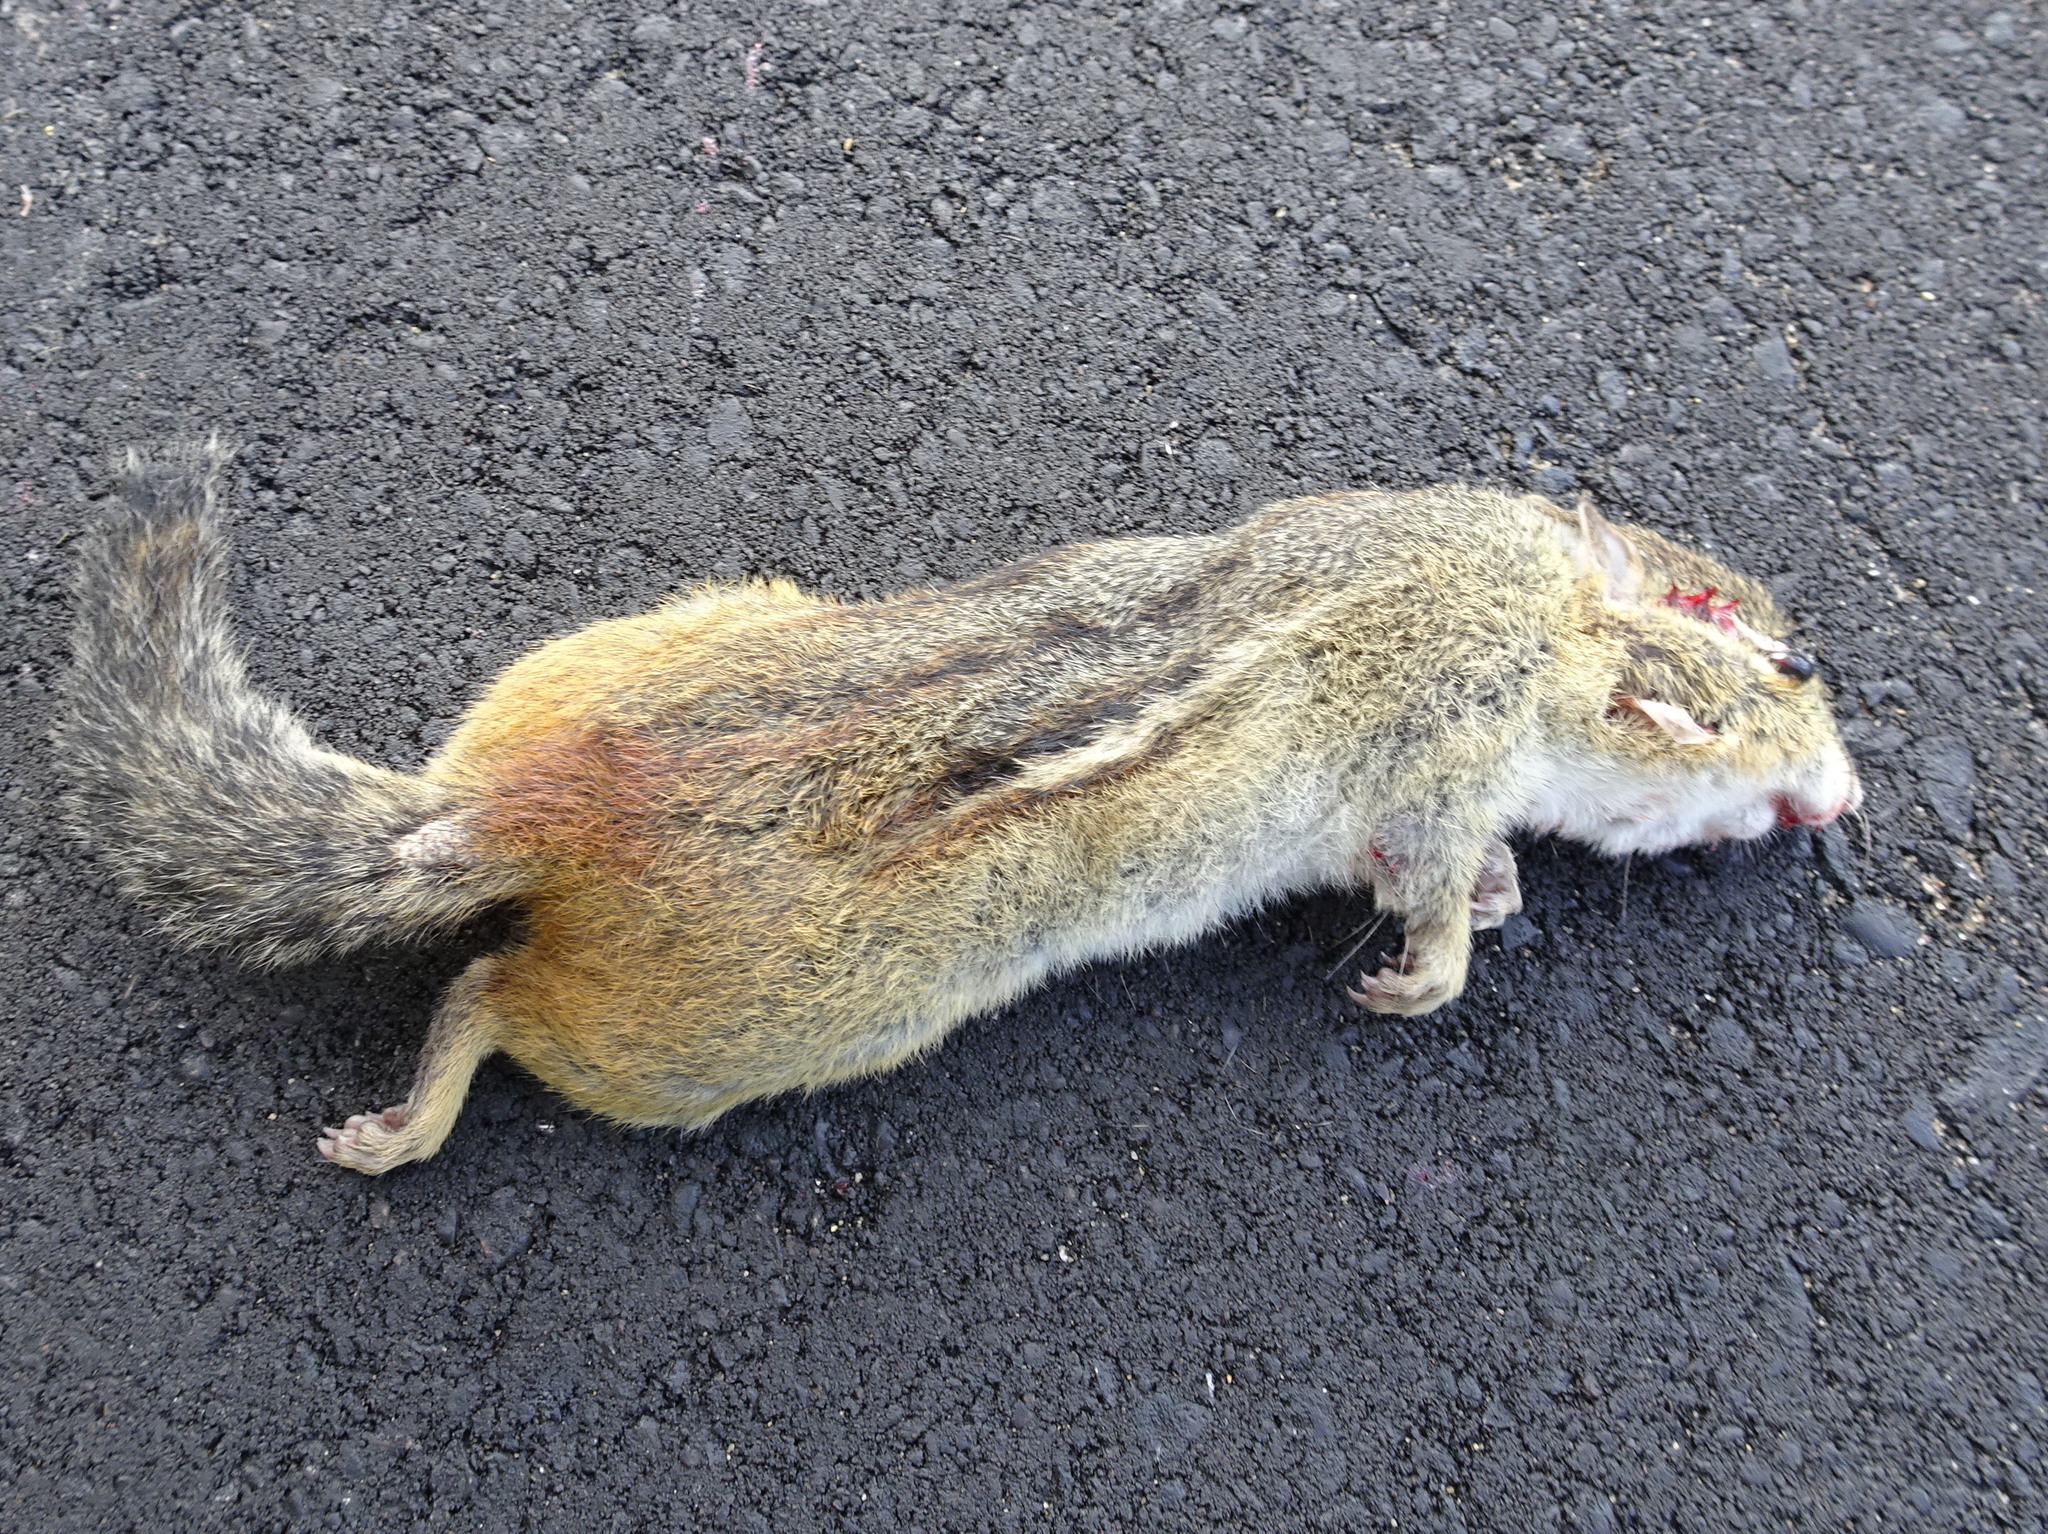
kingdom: Animalia
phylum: Chordata
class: Mammalia
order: Rodentia
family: Sciuridae
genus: Tamias
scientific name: Tamias striatus
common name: Eastern chipmunk
